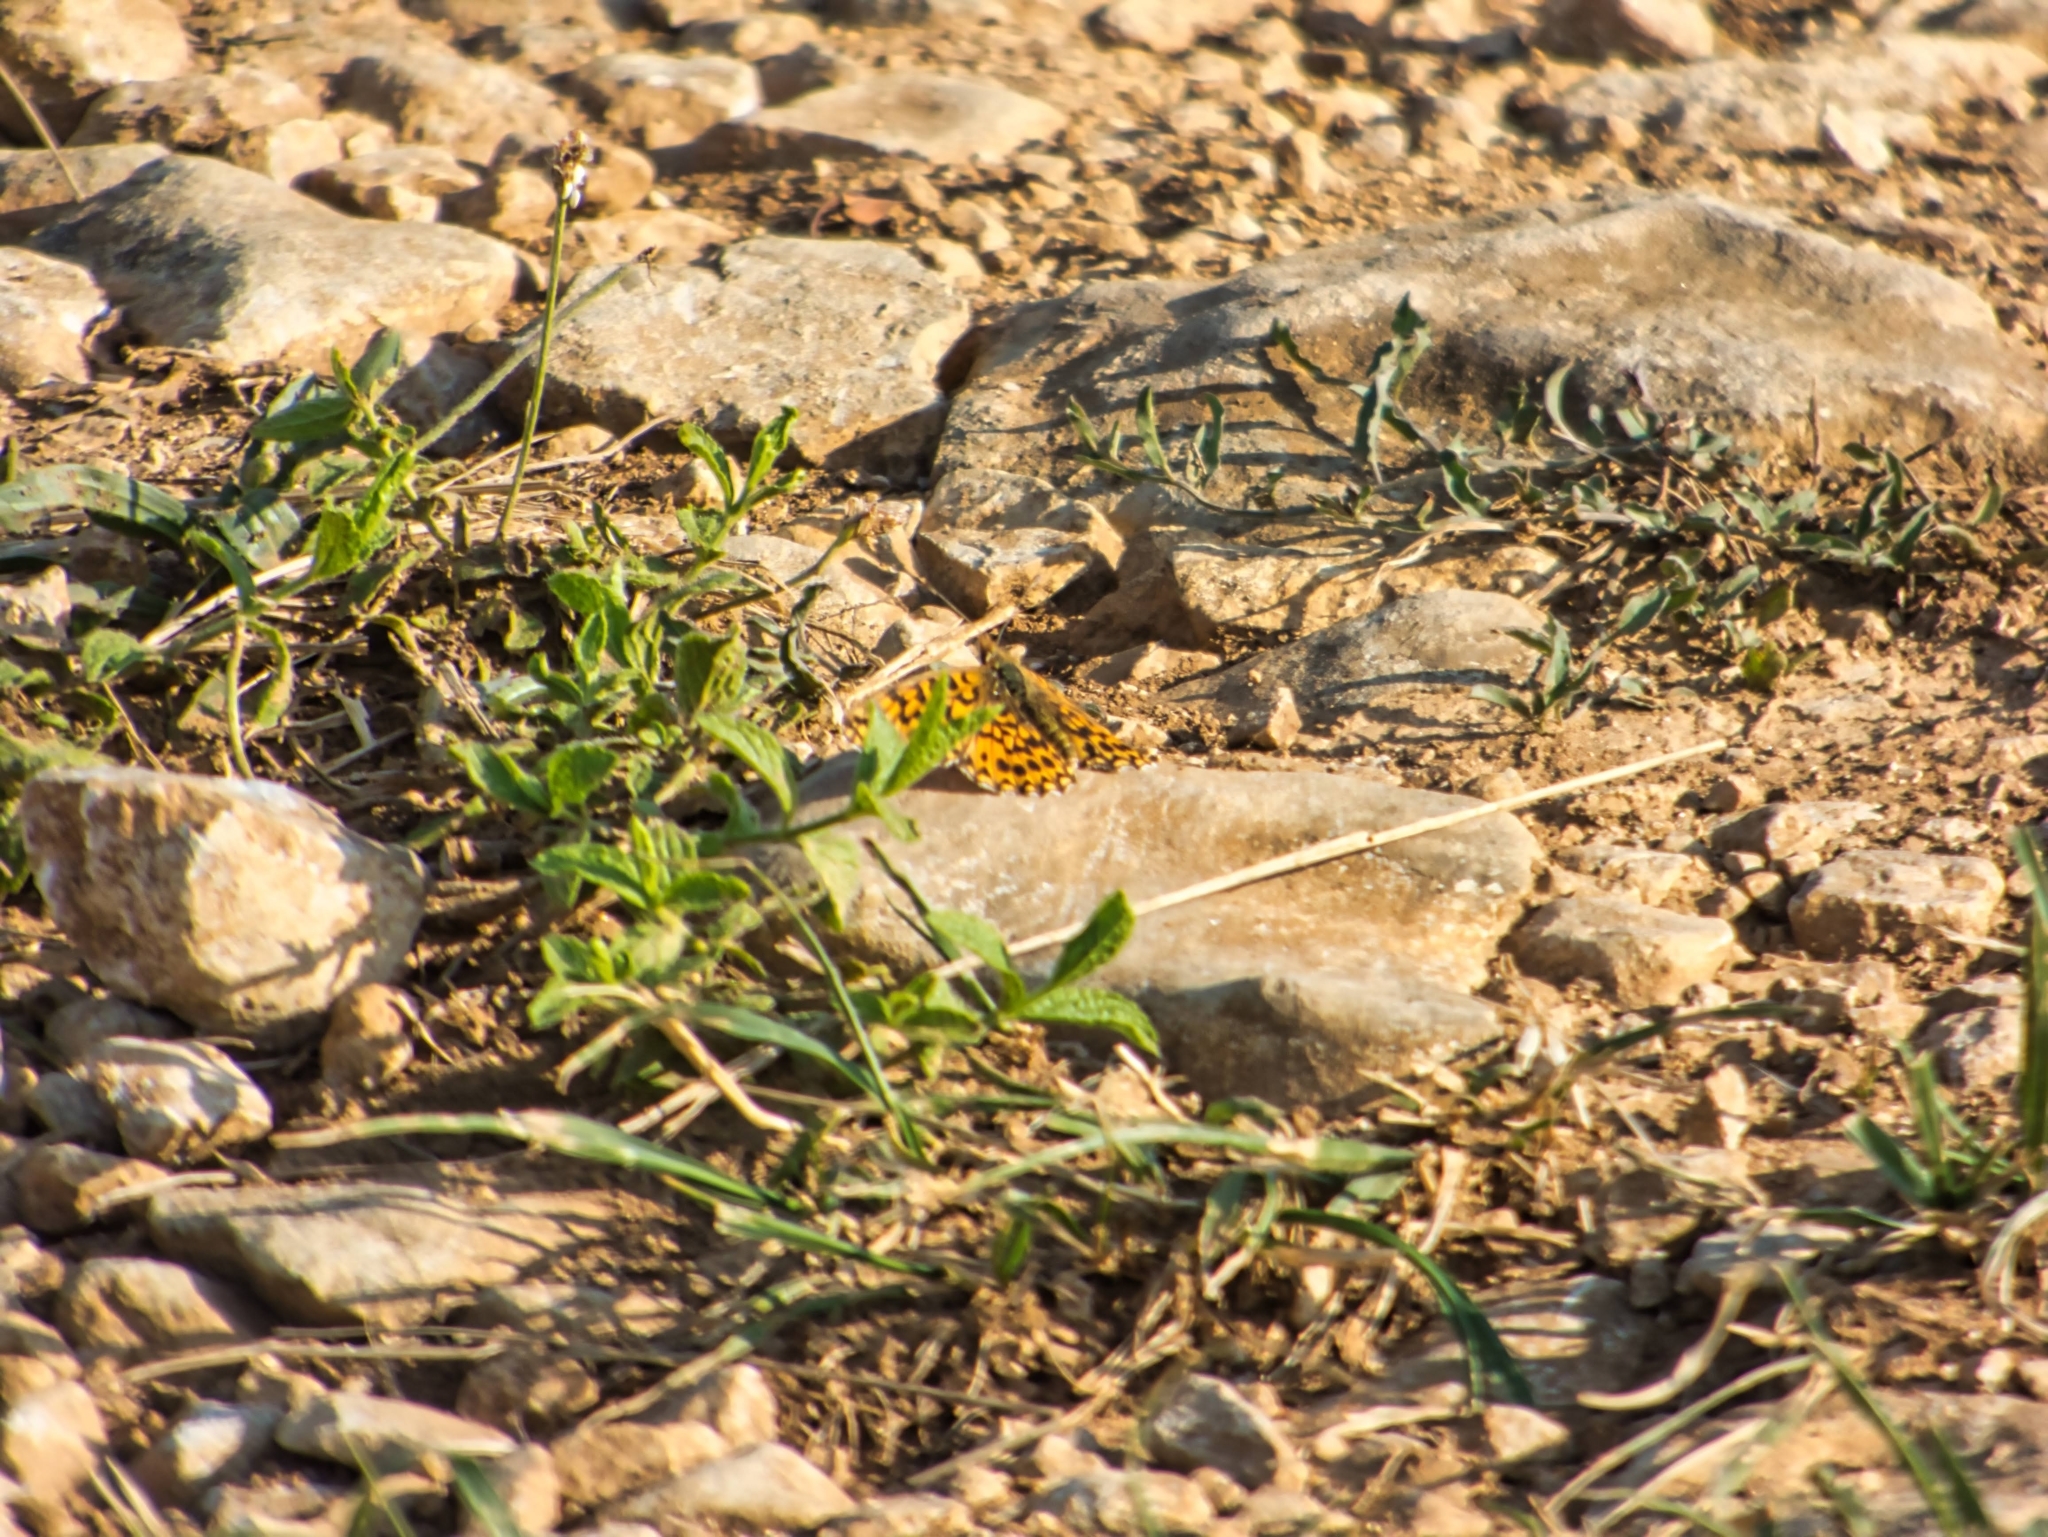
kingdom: Animalia
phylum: Arthropoda
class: Insecta
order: Lepidoptera
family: Nymphalidae
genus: Boloria
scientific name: Boloria dia
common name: Weaver's fritillary
